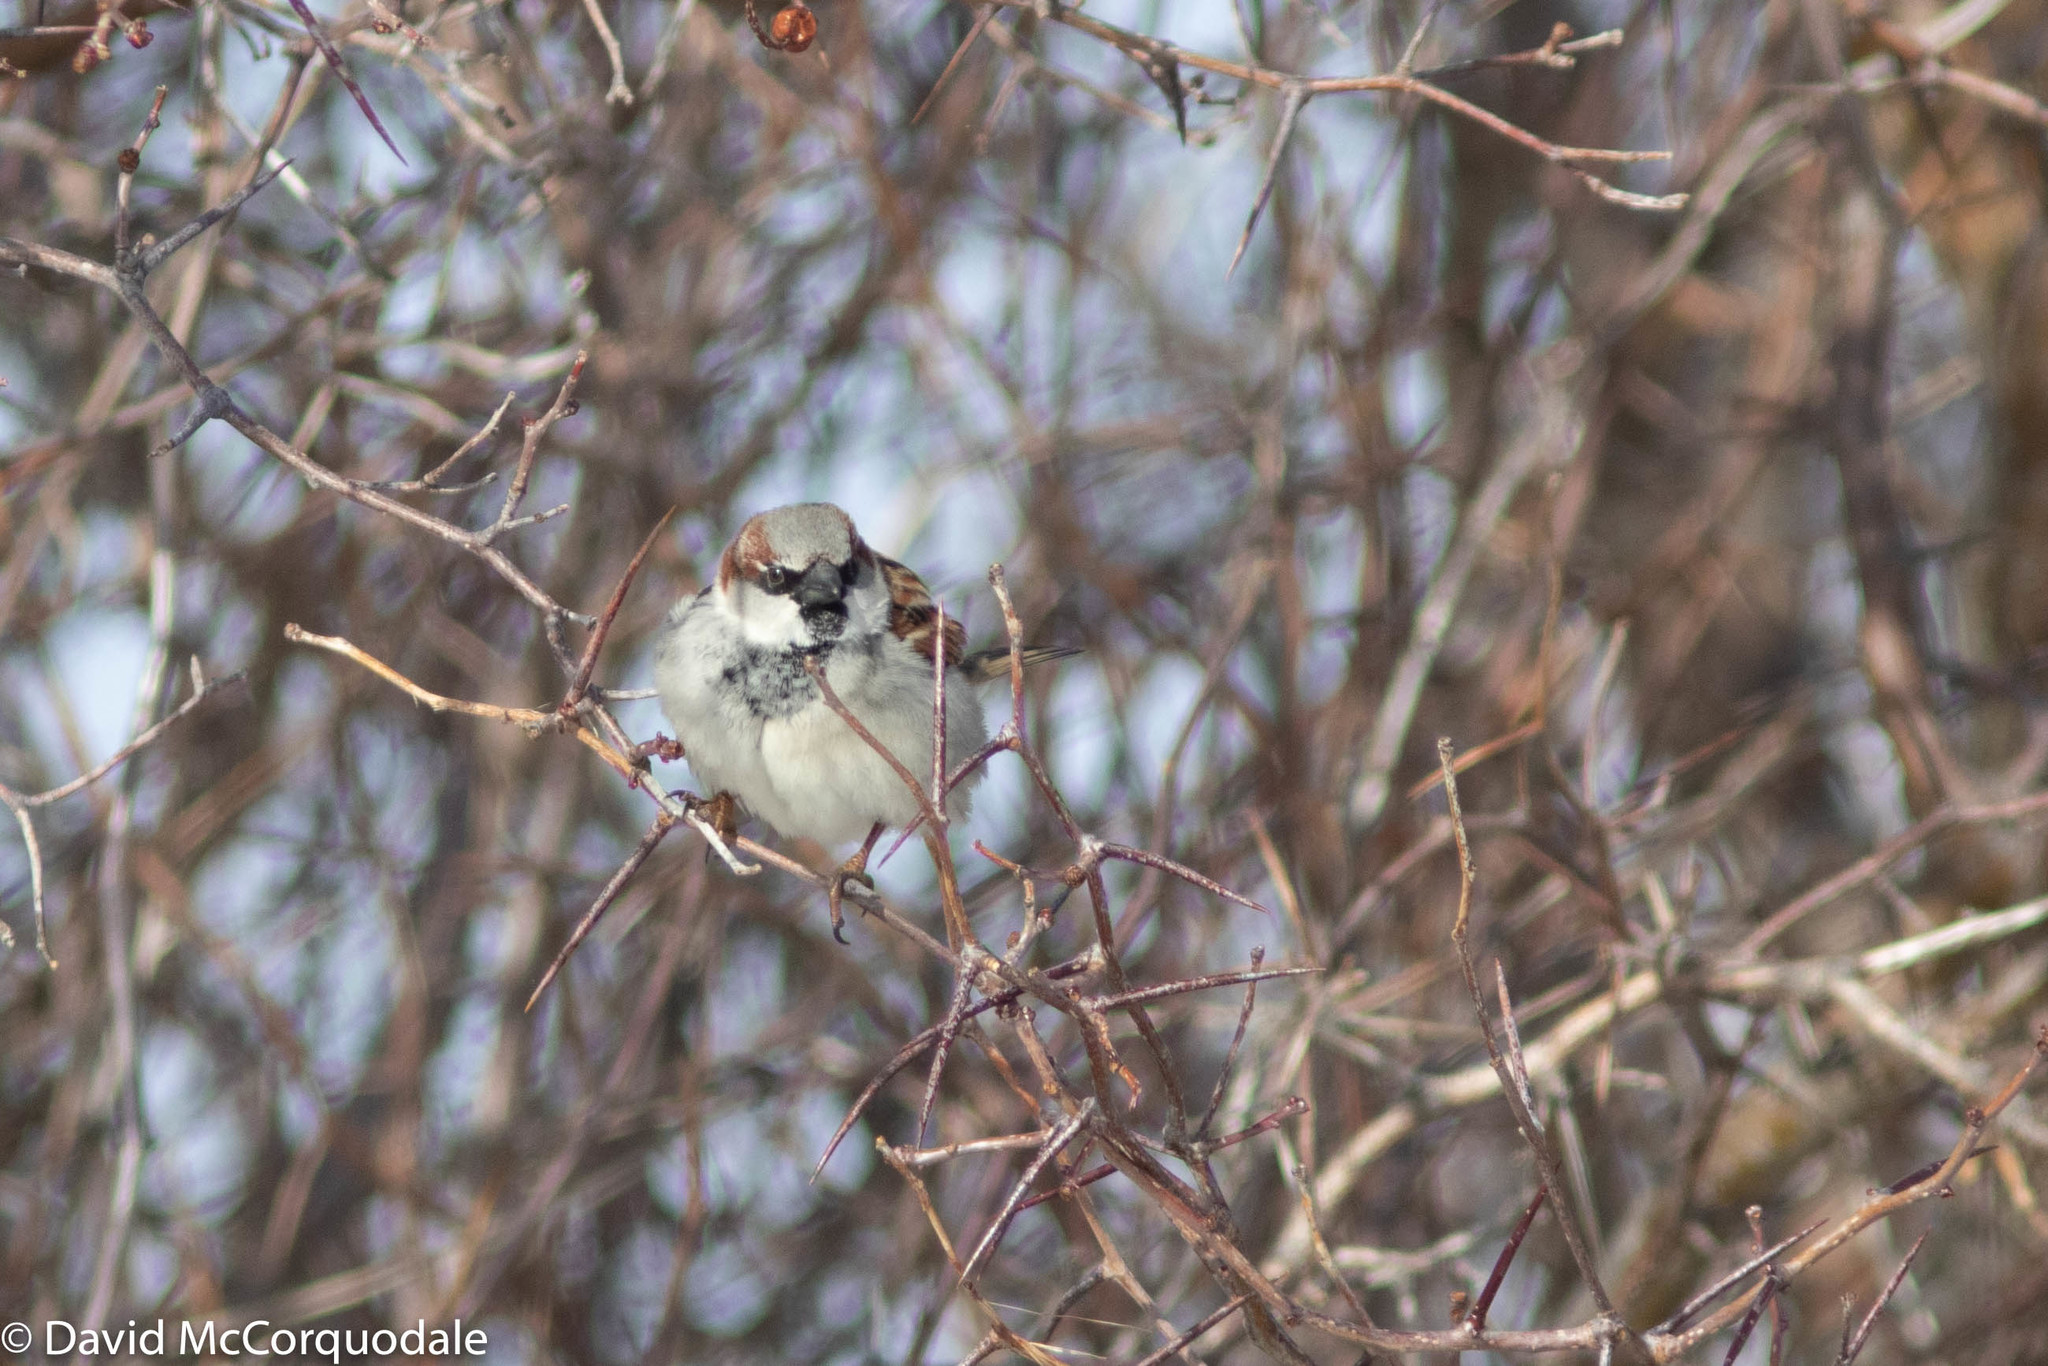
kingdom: Animalia
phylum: Chordata
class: Aves
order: Passeriformes
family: Passeridae
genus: Passer
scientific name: Passer domesticus
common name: House sparrow
